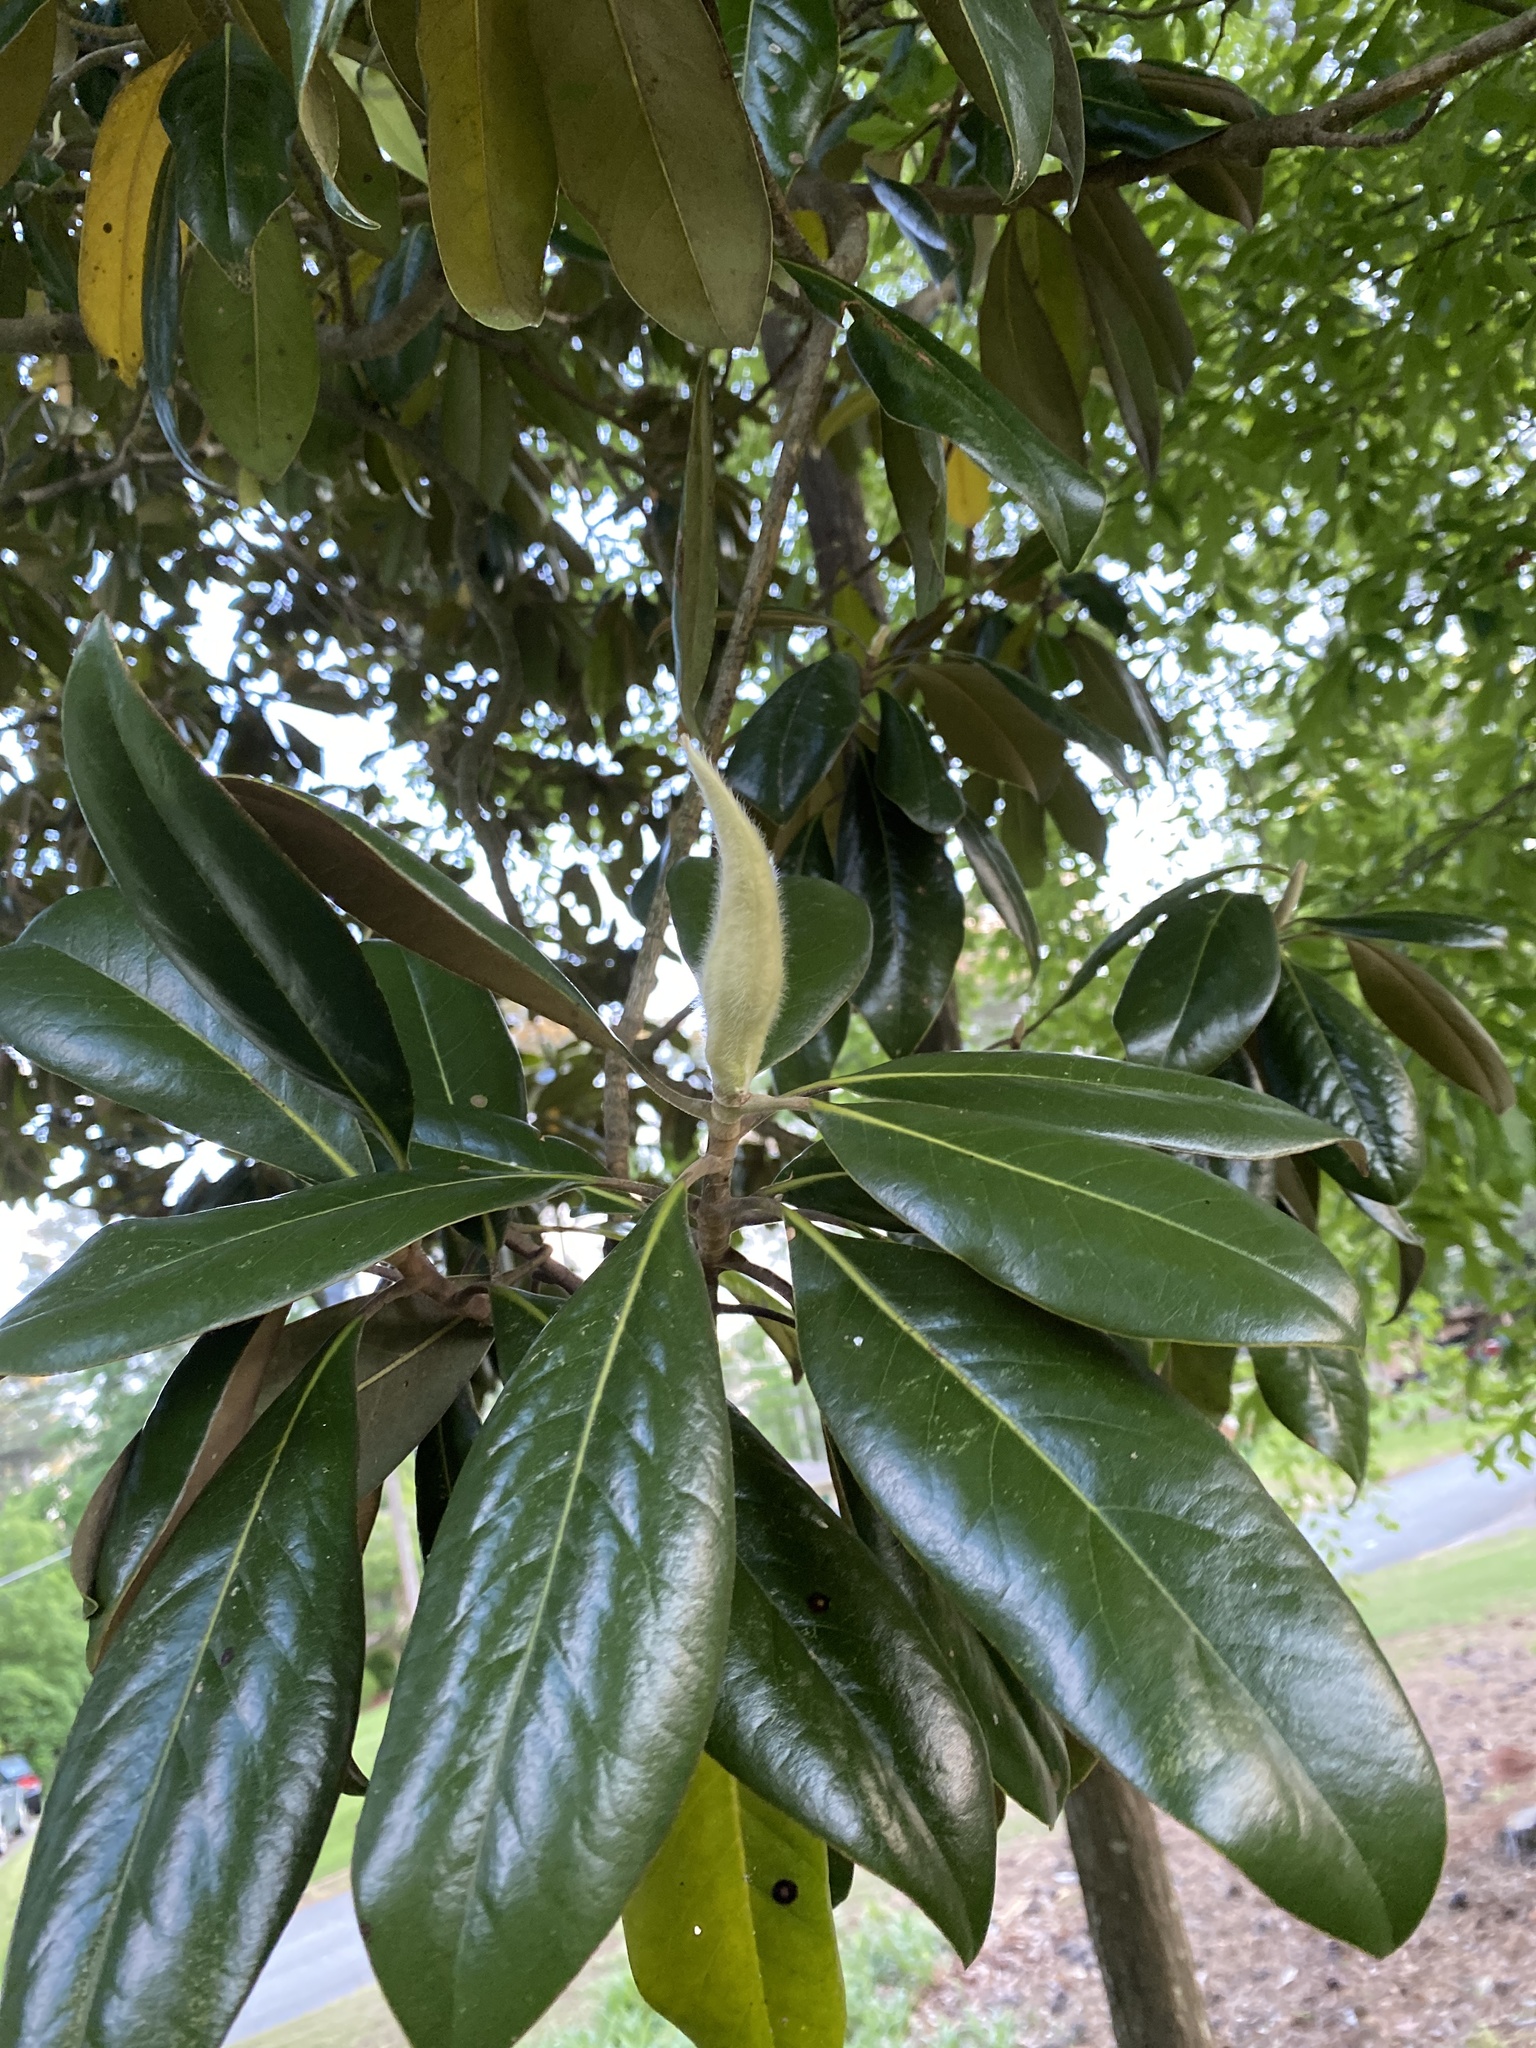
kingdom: Plantae
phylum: Tracheophyta
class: Magnoliopsida
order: Magnoliales
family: Magnoliaceae
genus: Magnolia
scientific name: Magnolia grandiflora
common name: Southern magnolia
